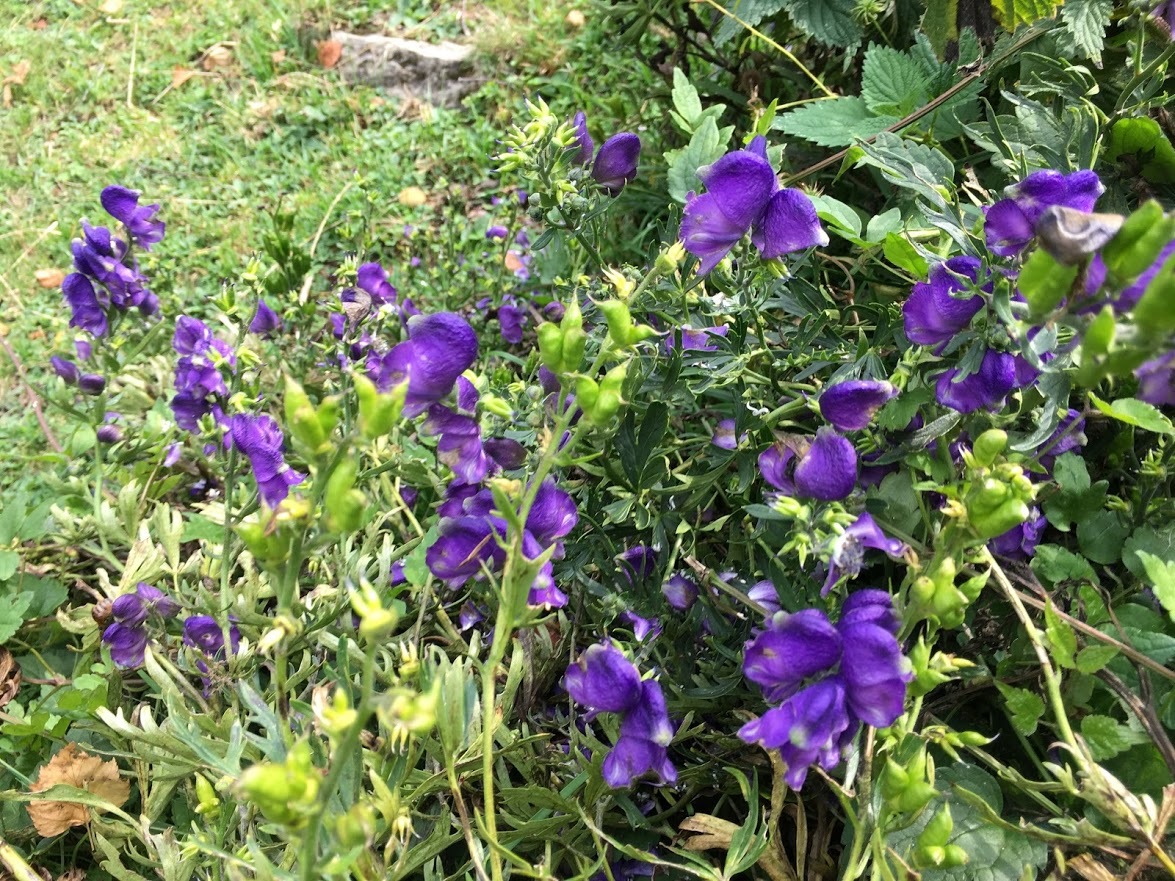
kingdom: Plantae
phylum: Tracheophyta
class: Magnoliopsida
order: Ranunculales
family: Ranunculaceae
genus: Aconitum
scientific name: Aconitum napellus
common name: Garden monkshood
